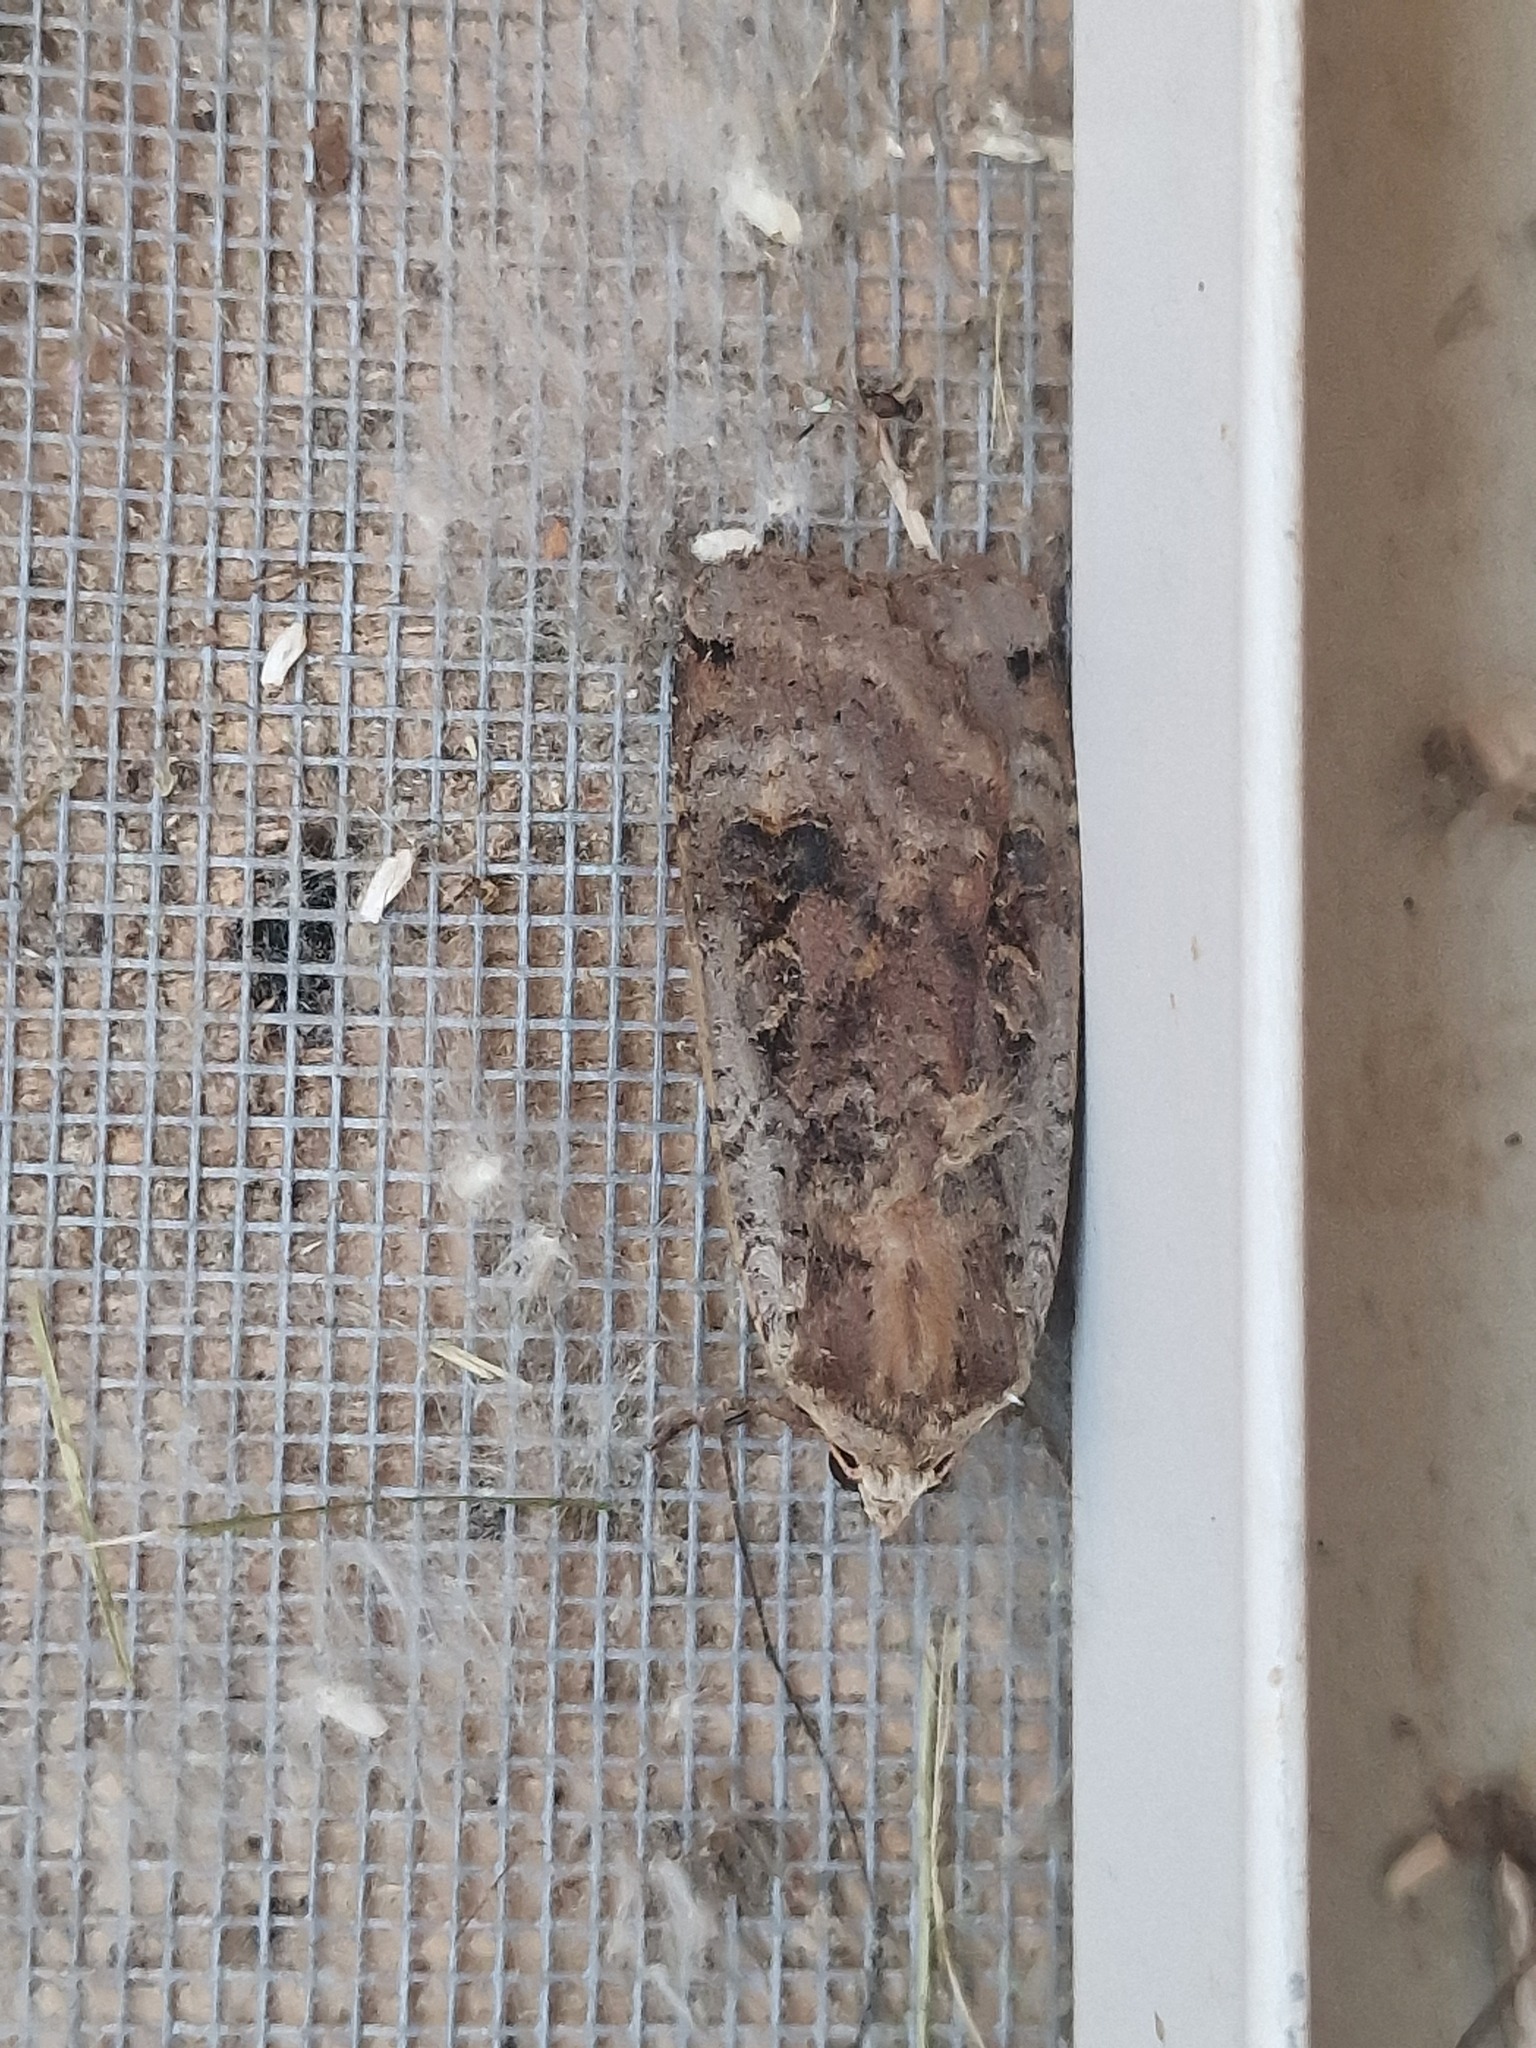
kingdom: Animalia
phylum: Arthropoda
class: Insecta
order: Lepidoptera
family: Noctuidae
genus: Noctua
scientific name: Noctua pronuba
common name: Large yellow underwing
